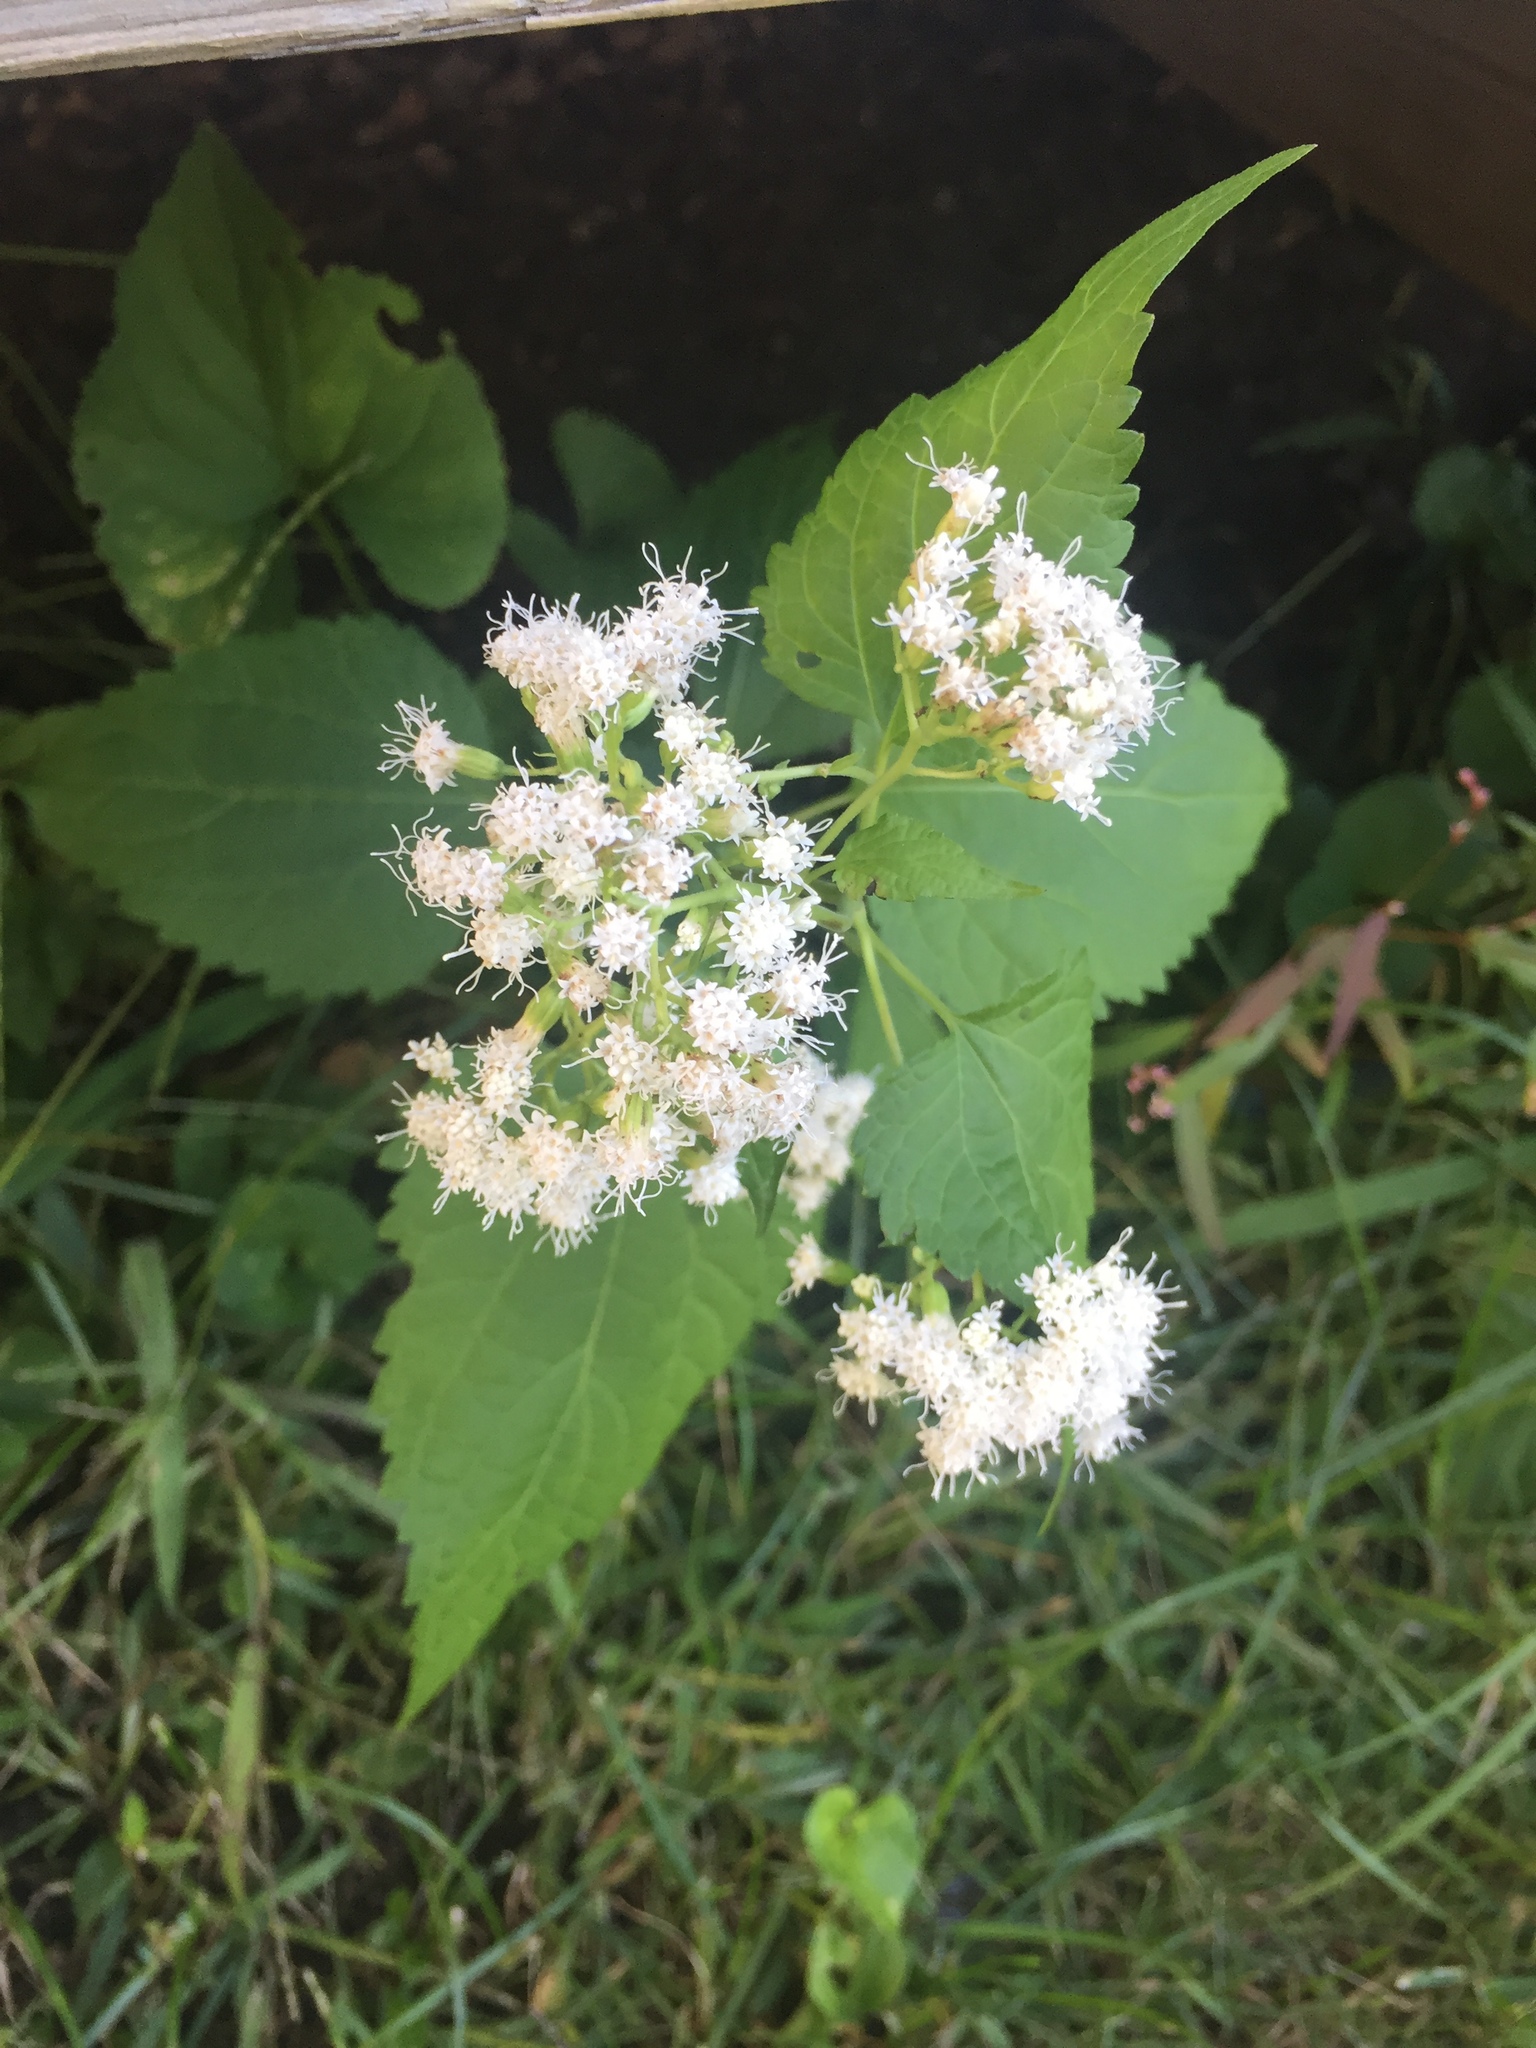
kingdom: Plantae
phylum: Tracheophyta
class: Magnoliopsida
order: Asterales
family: Asteraceae
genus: Ageratina
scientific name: Ageratina altissima
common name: White snakeroot
